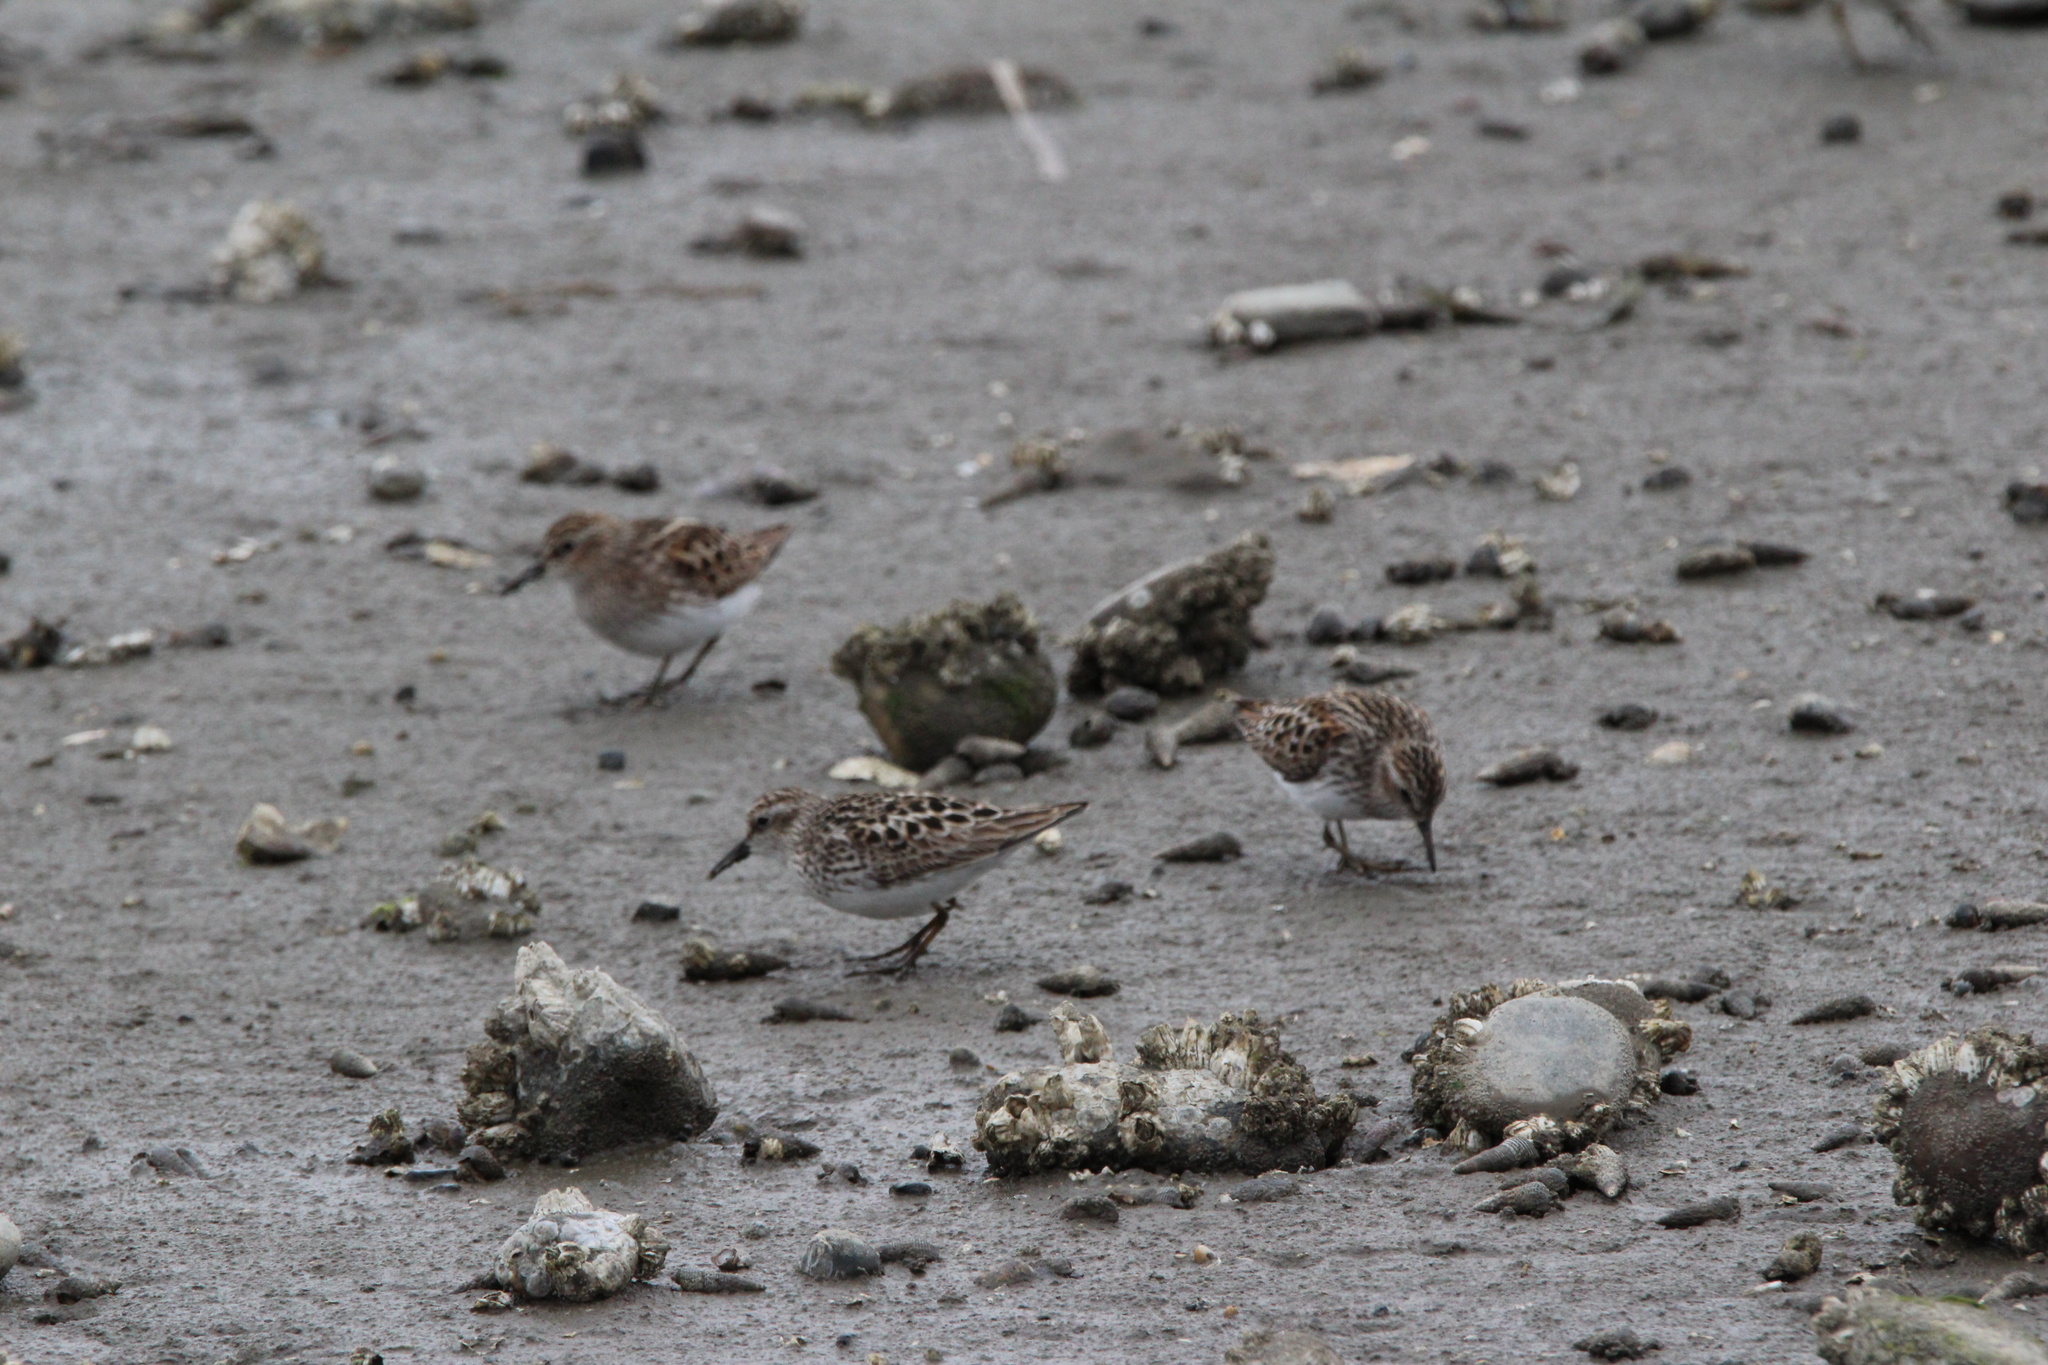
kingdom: Animalia
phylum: Chordata
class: Aves
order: Charadriiformes
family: Scolopacidae
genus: Calidris
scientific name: Calidris minutilla
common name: Least sandpiper
